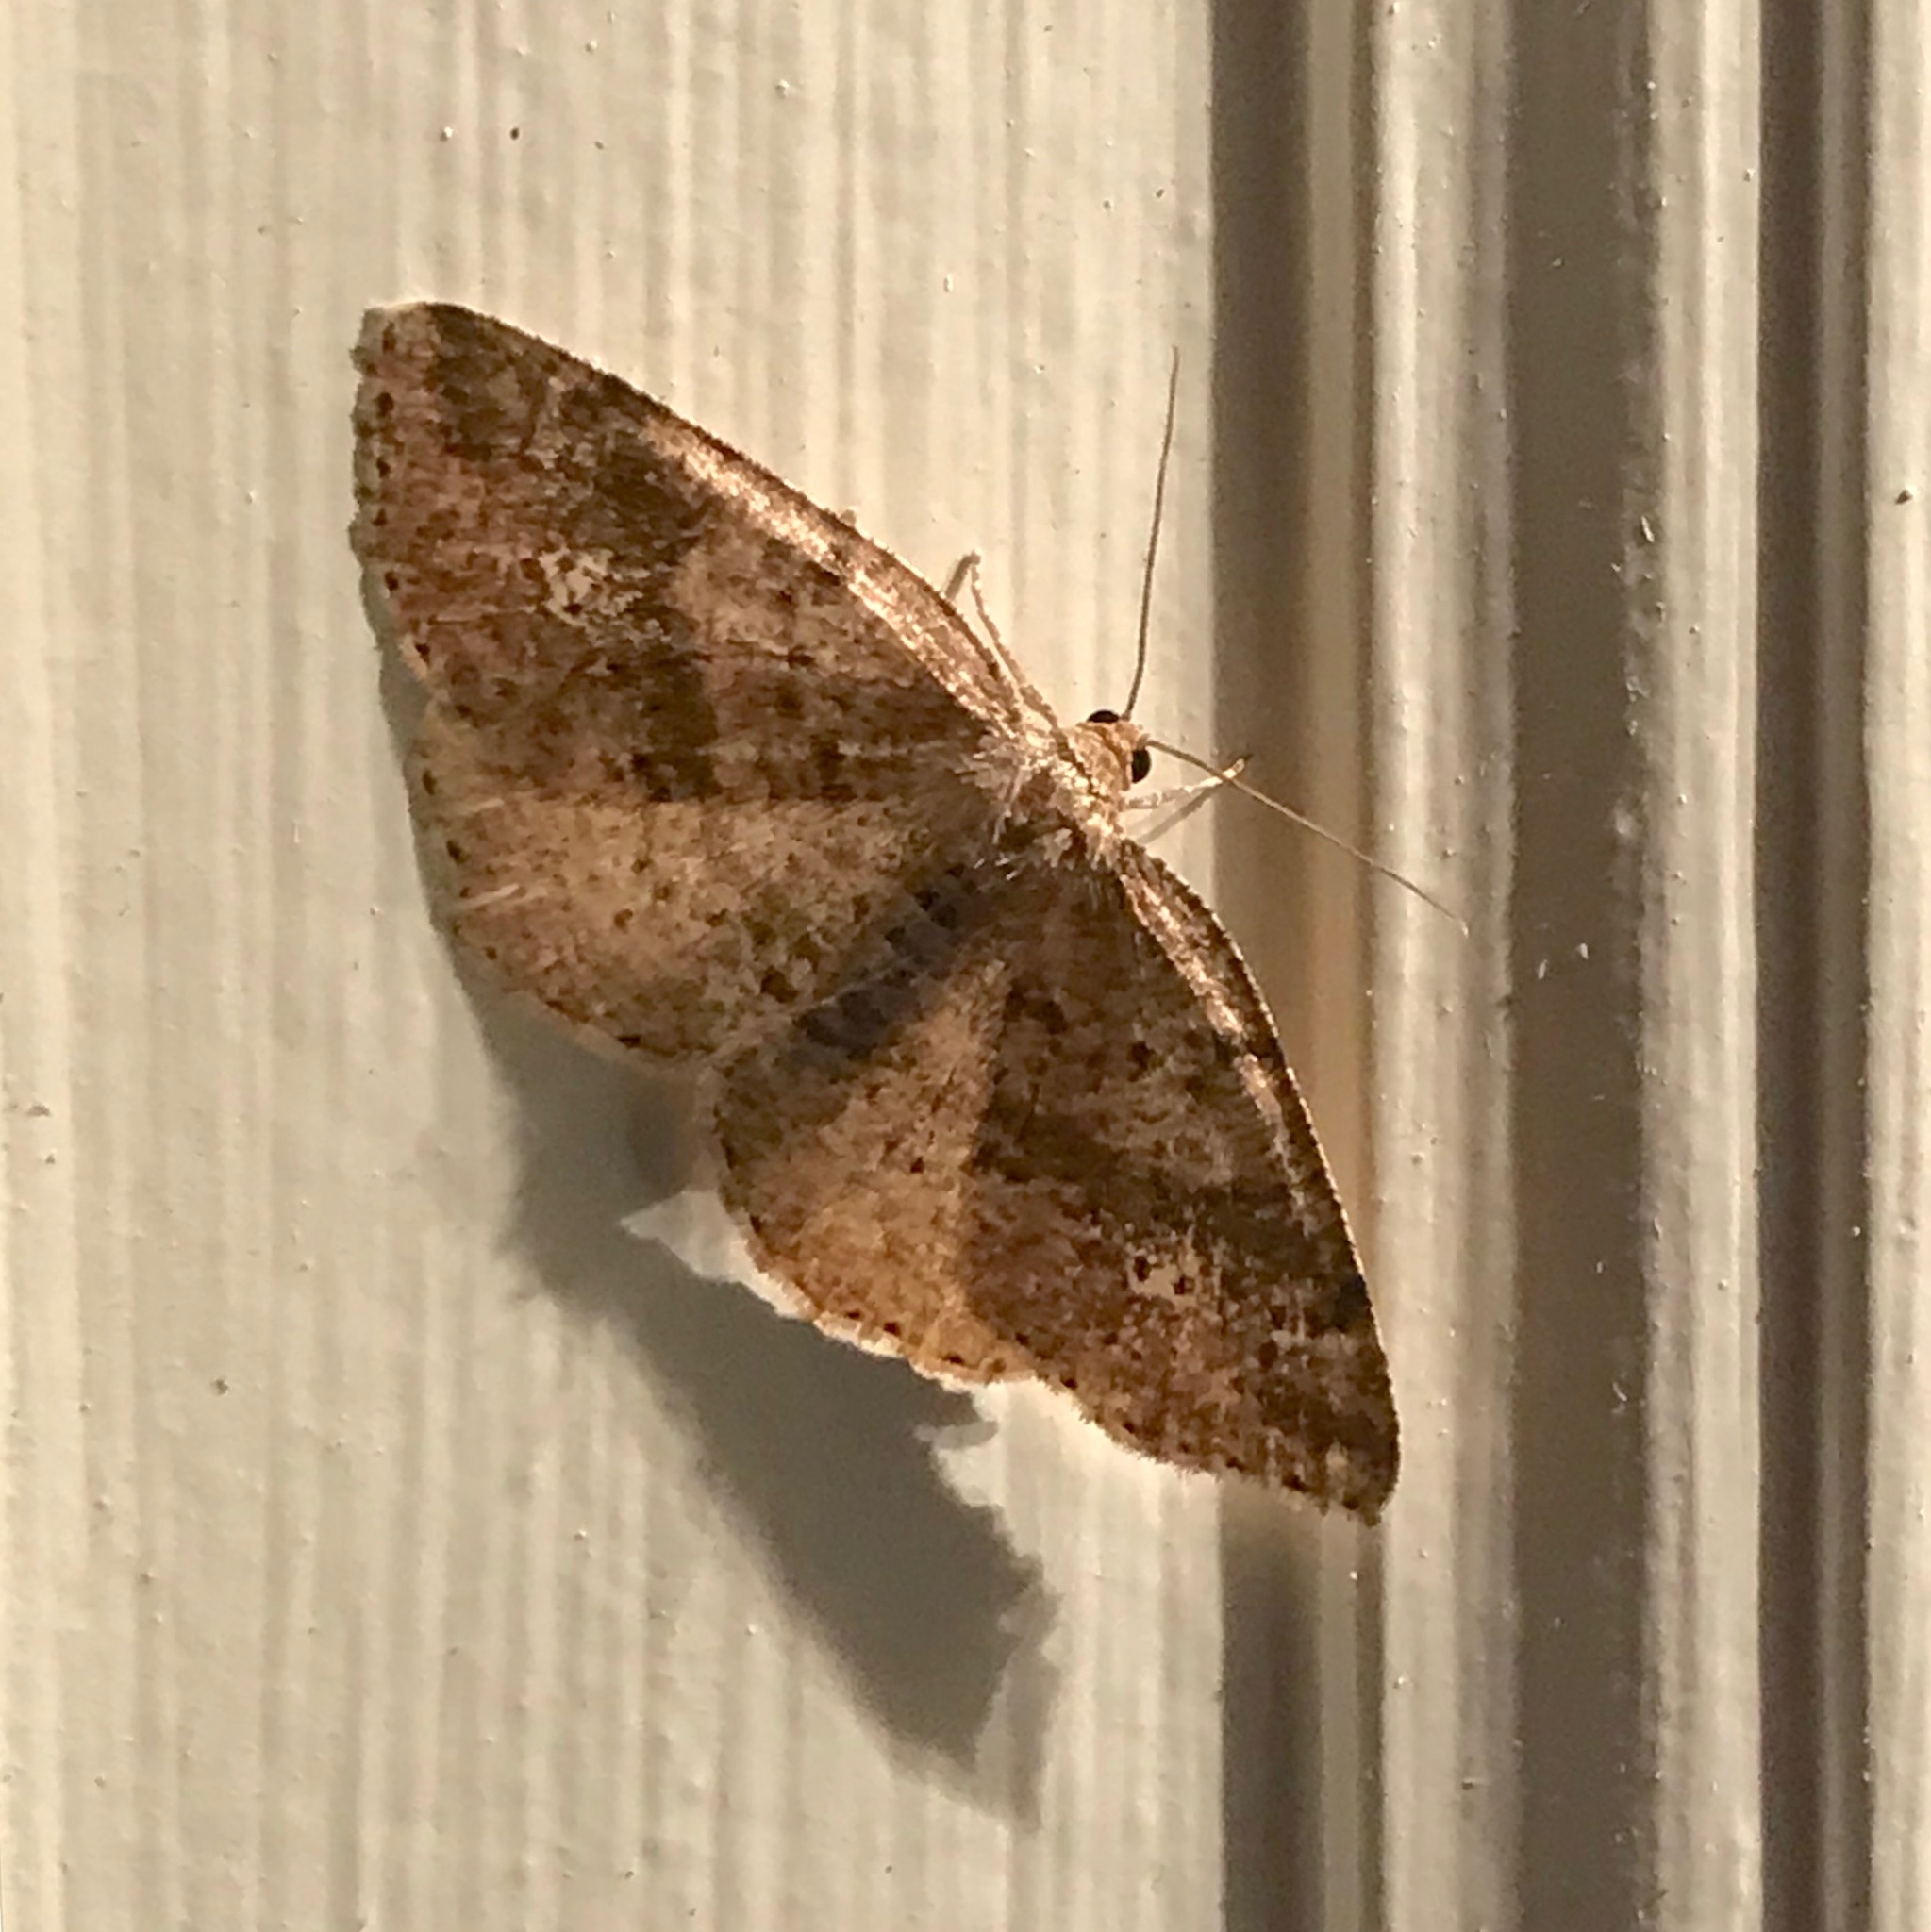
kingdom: Animalia
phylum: Arthropoda
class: Insecta
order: Lepidoptera
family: Geometridae
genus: Homochlodes
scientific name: Homochlodes fritillaria
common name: Pale homochlodes
